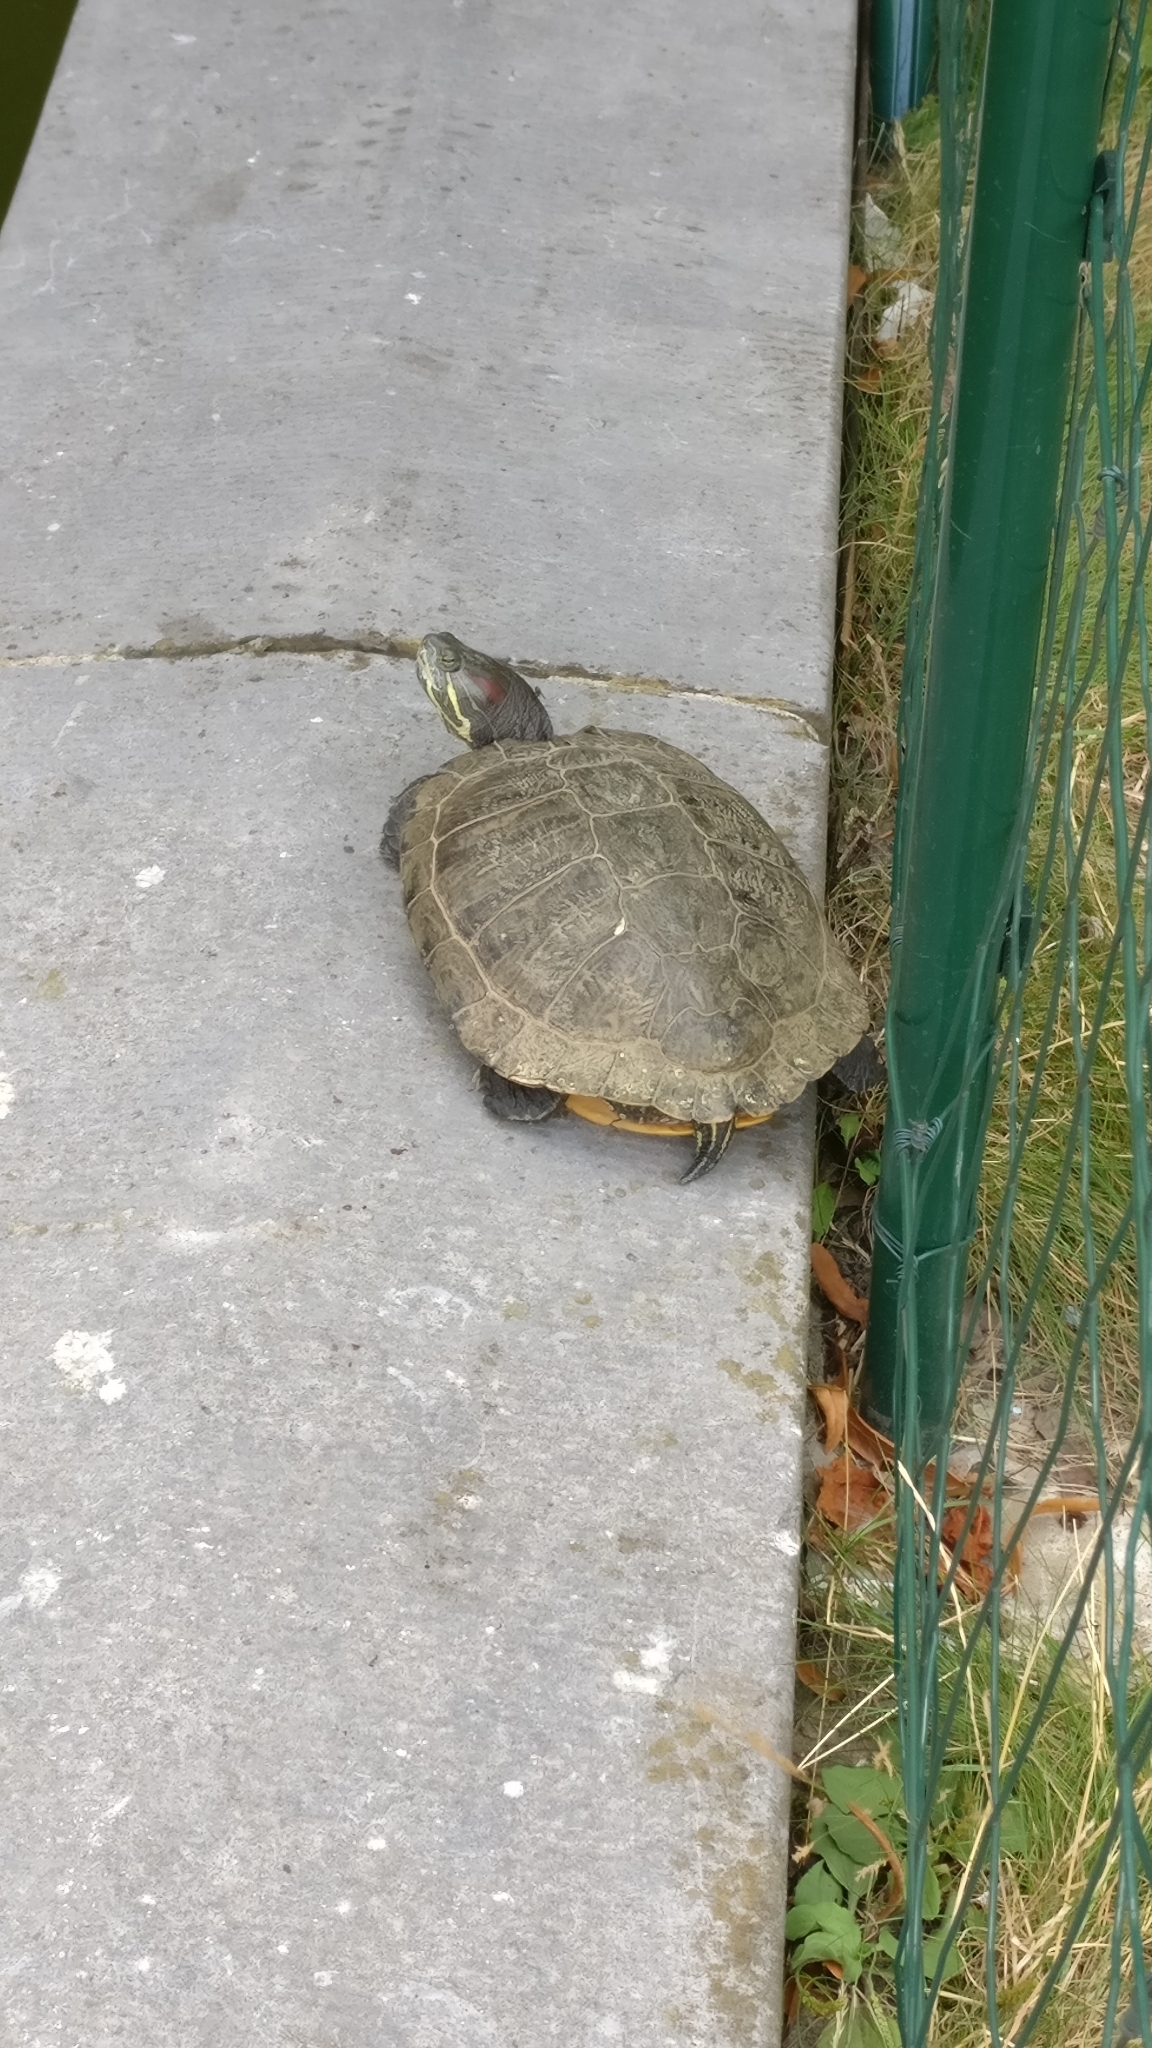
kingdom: Animalia
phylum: Chordata
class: Testudines
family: Emydidae
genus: Trachemys
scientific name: Trachemys scripta
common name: Slider
